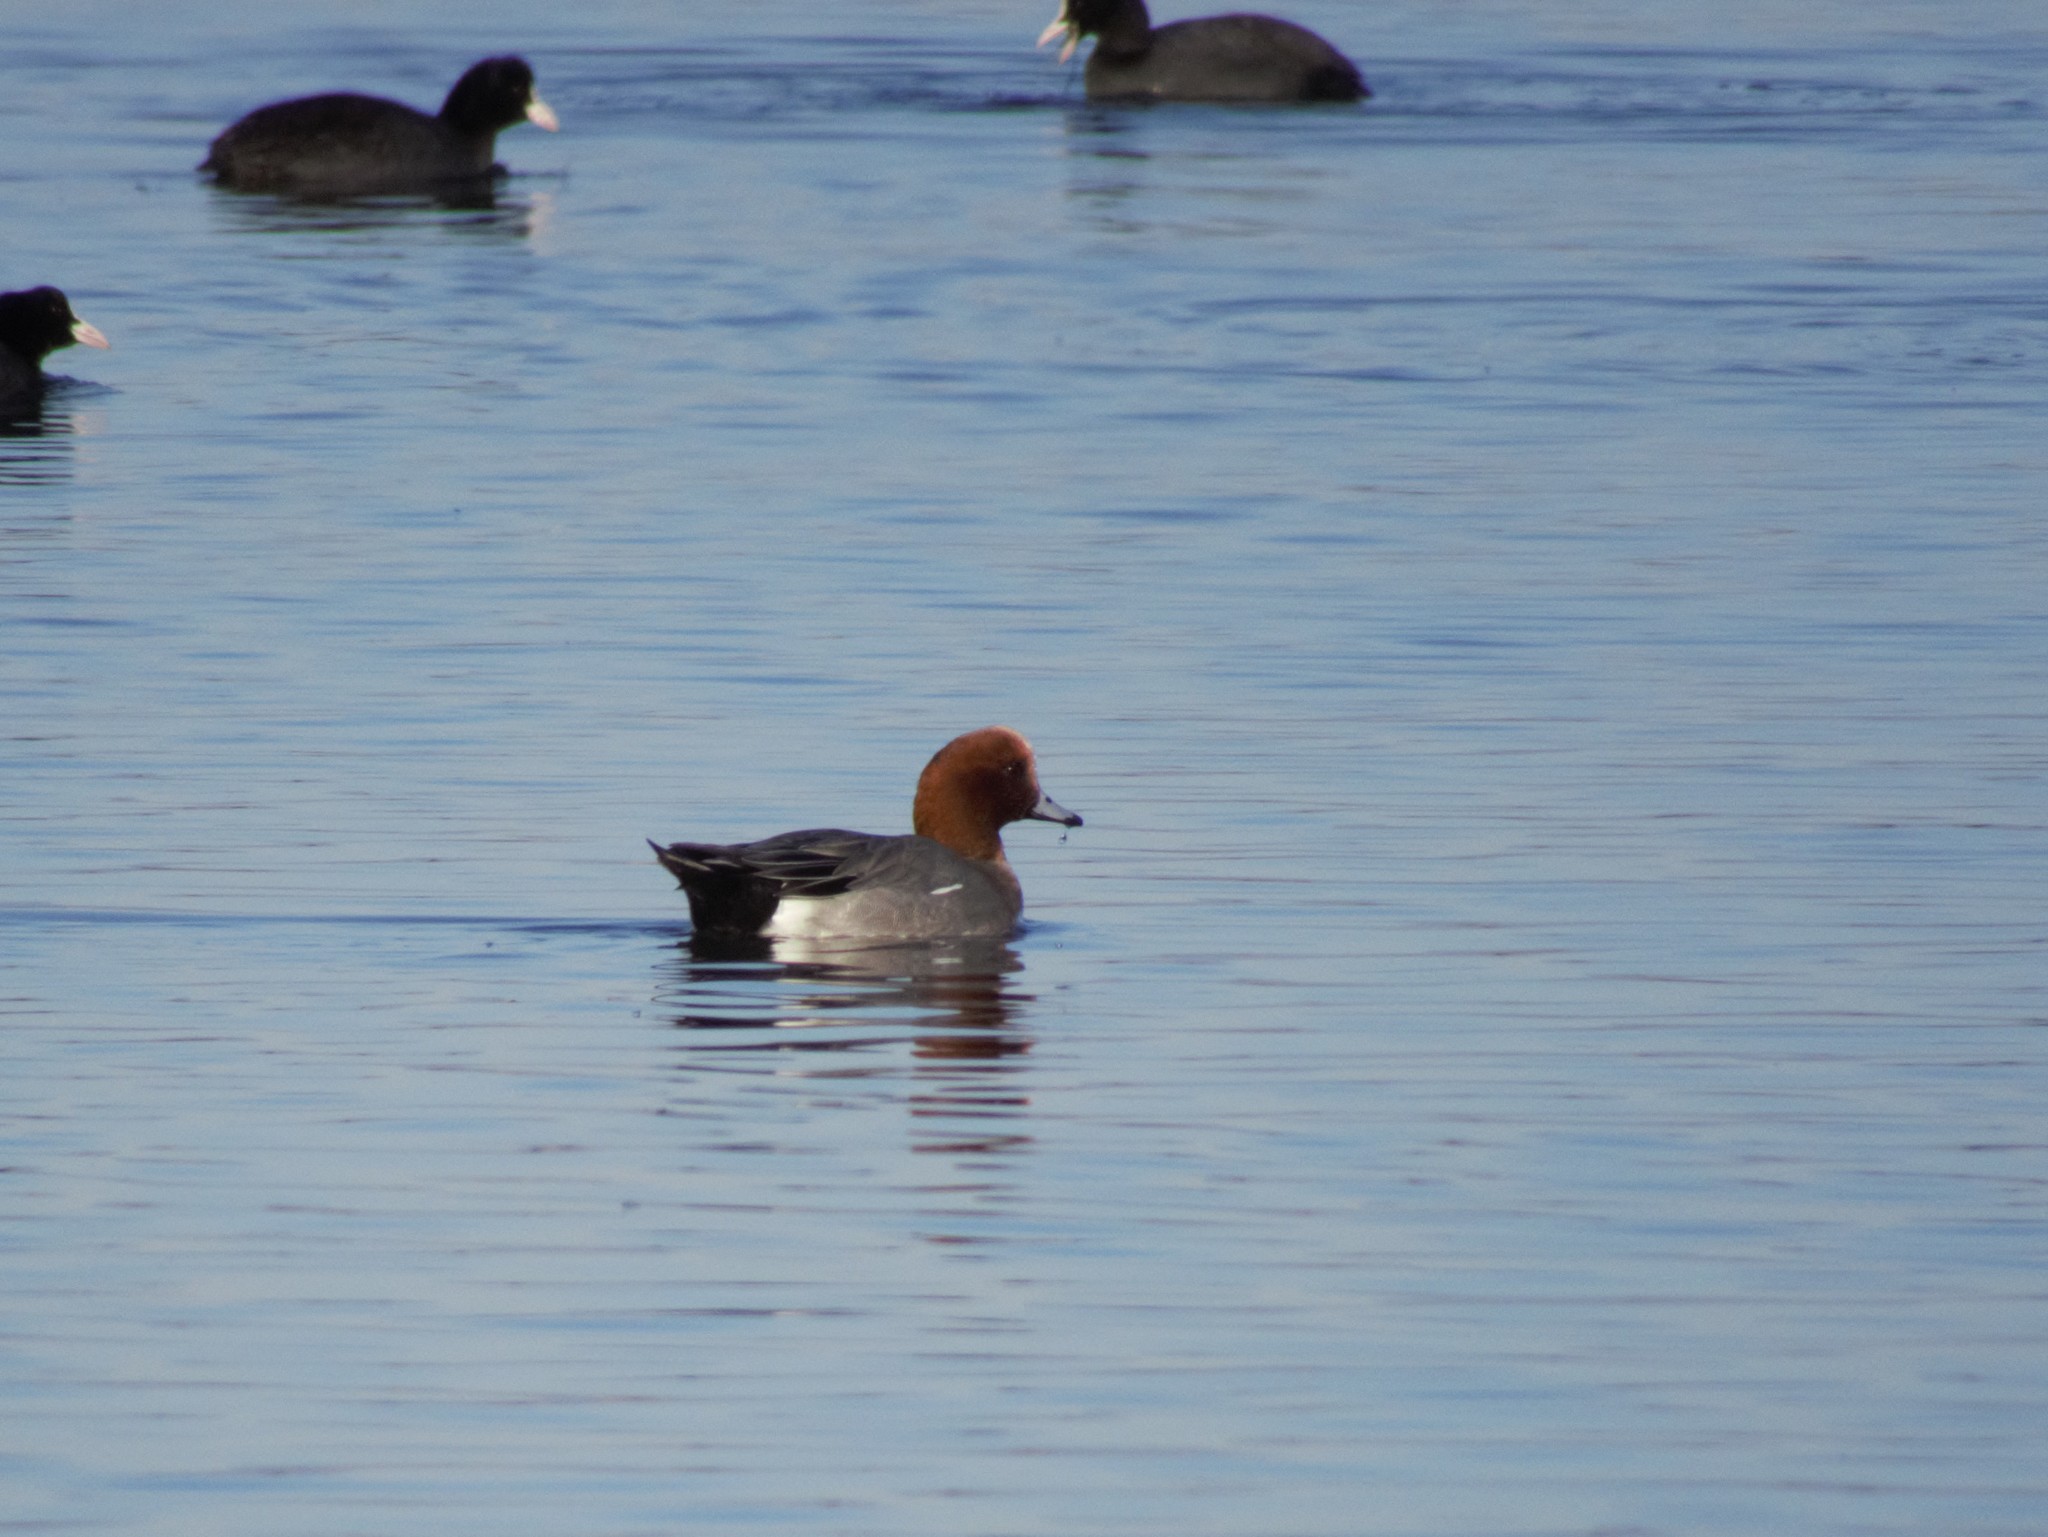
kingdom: Animalia
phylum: Chordata
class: Aves
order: Anseriformes
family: Anatidae
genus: Mareca
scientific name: Mareca penelope
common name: Eurasian wigeon
